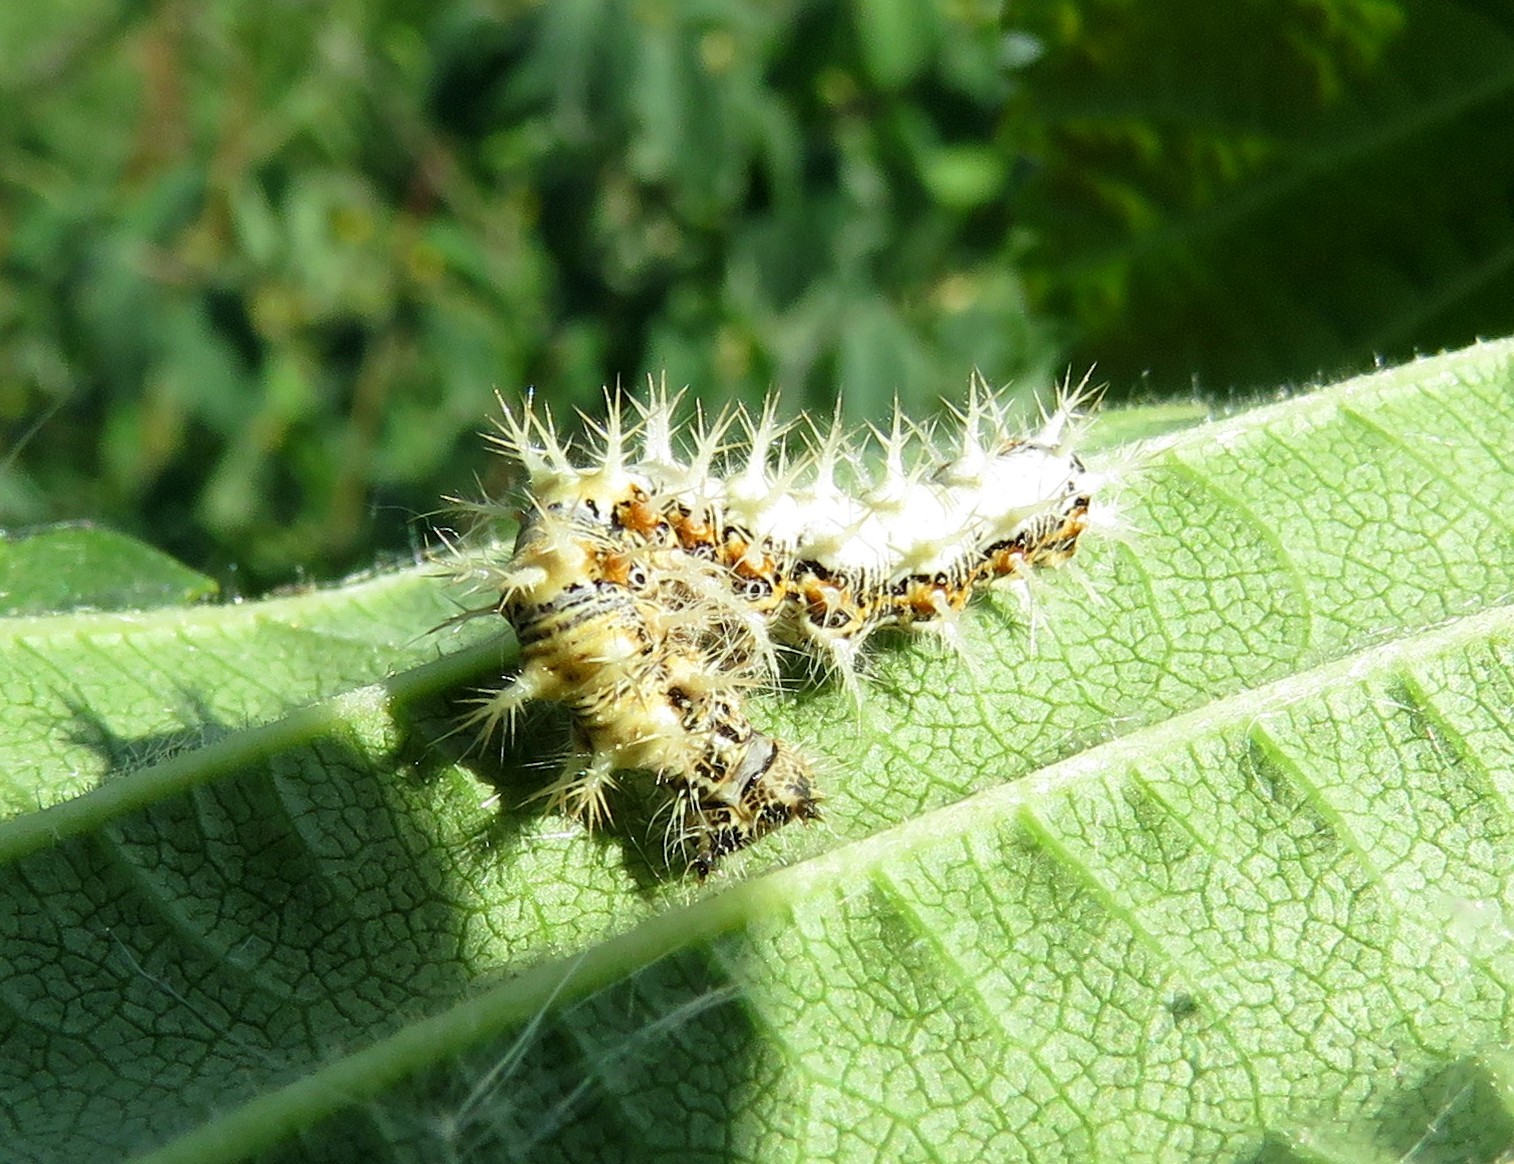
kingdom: Animalia
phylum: Arthropoda
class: Insecta
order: Lepidoptera
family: Nymphalidae
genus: Polygonia
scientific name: Polygonia c-album
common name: Comma
